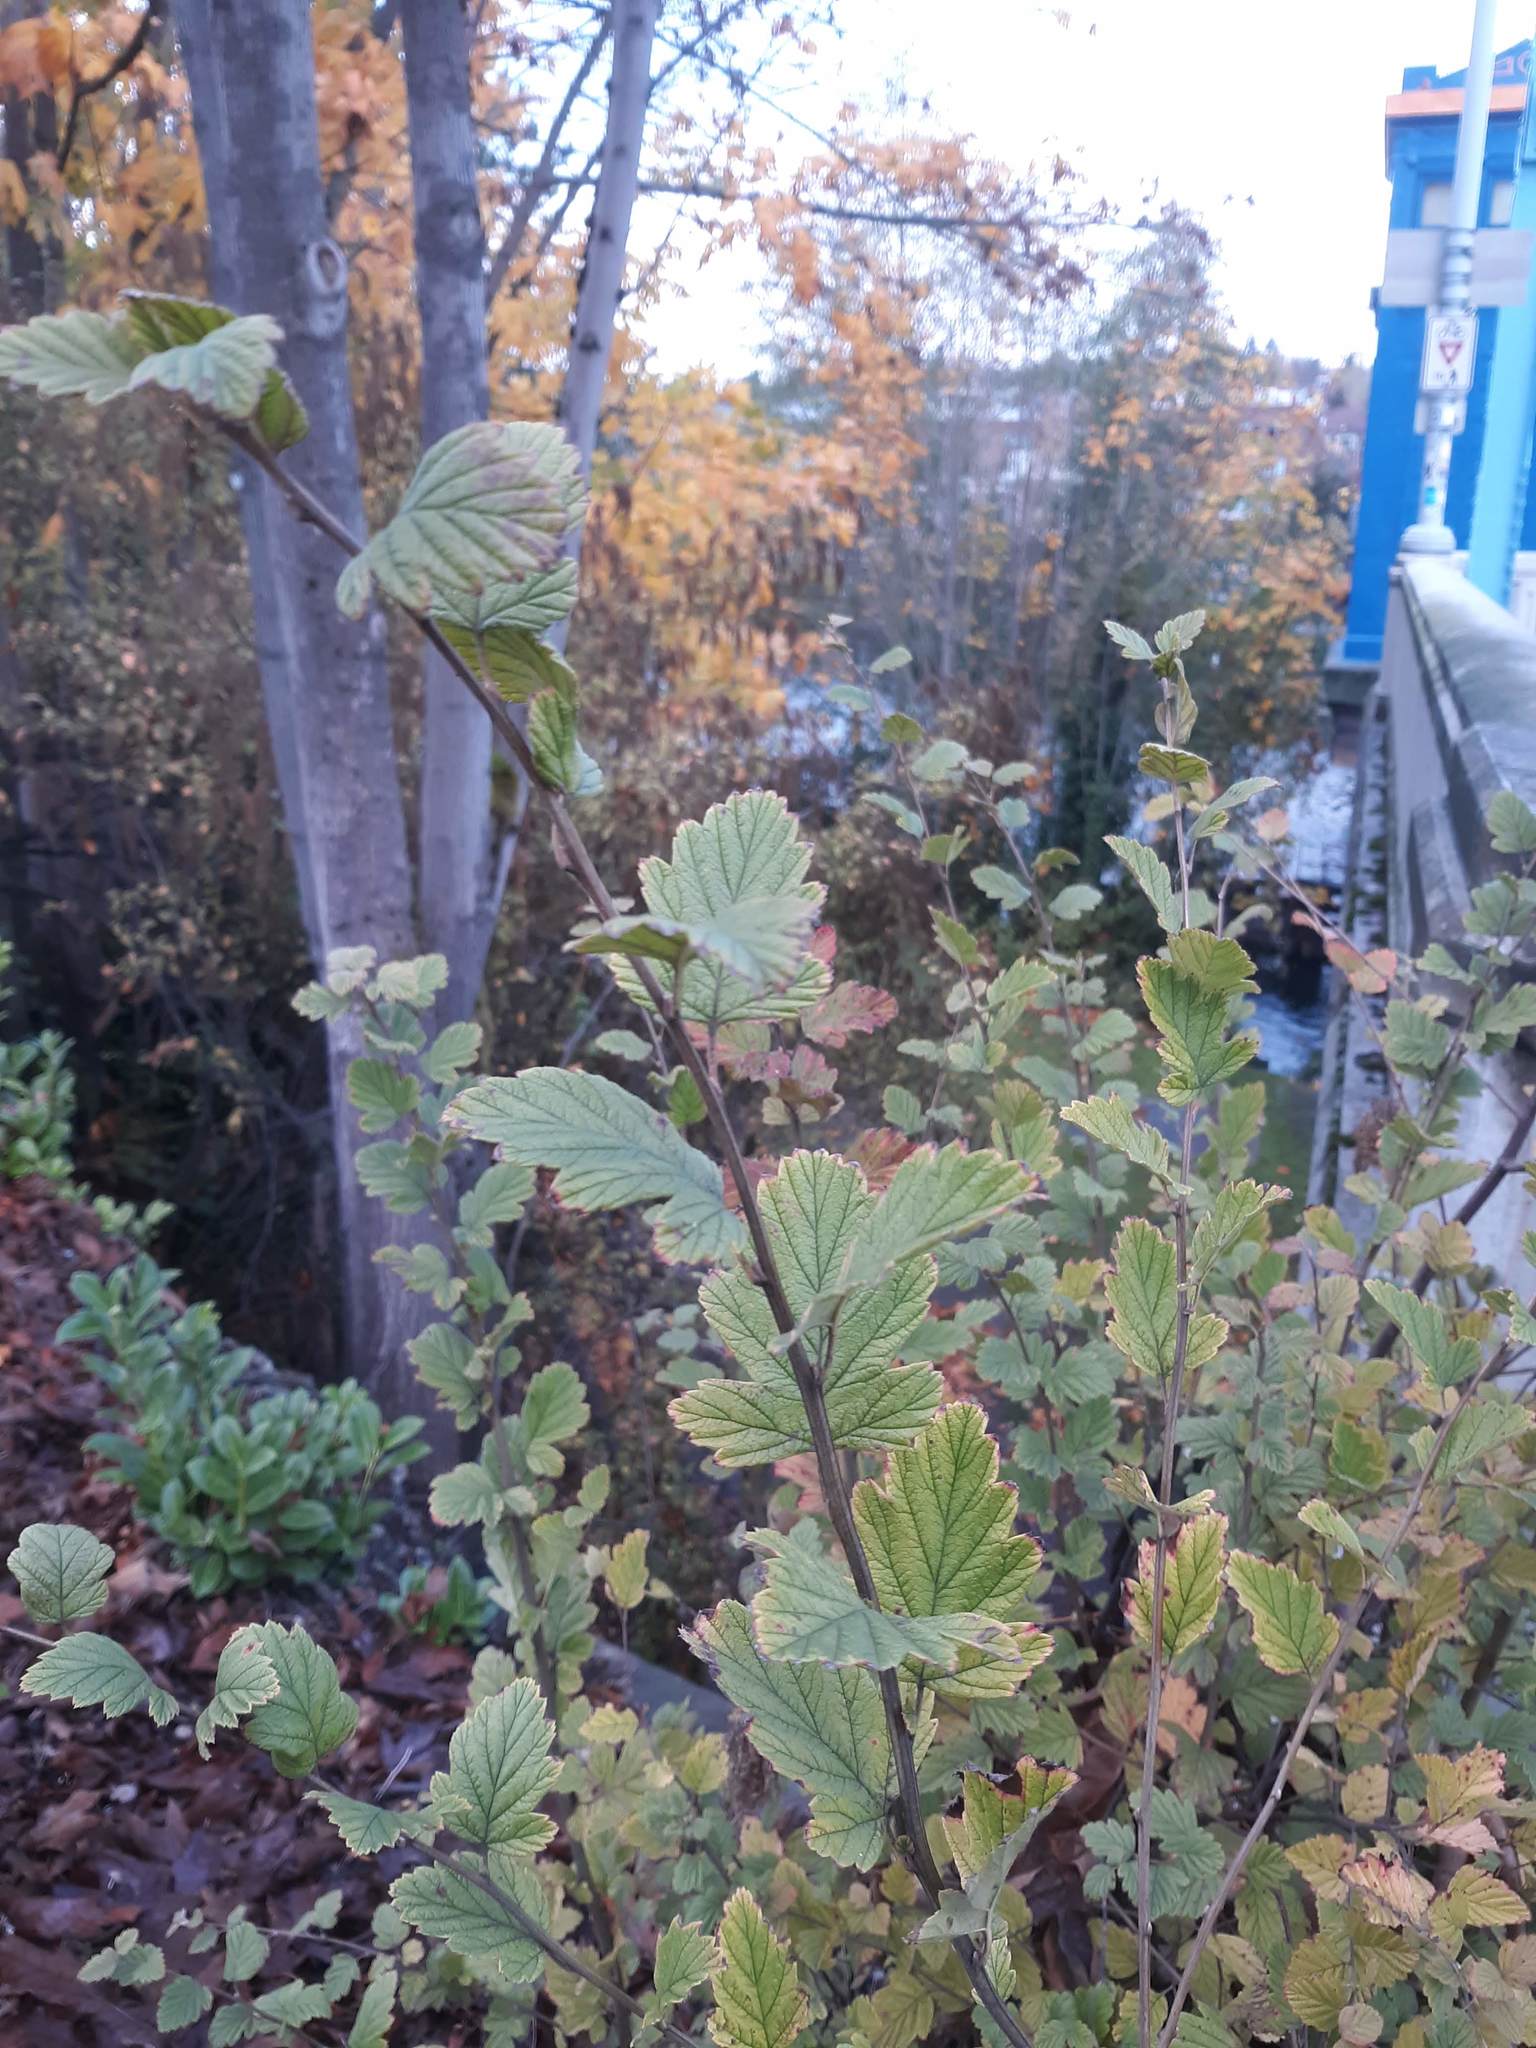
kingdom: Plantae
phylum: Tracheophyta
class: Magnoliopsida
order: Rosales
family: Rosaceae
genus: Holodiscus
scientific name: Holodiscus discolor
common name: Oceanspray
